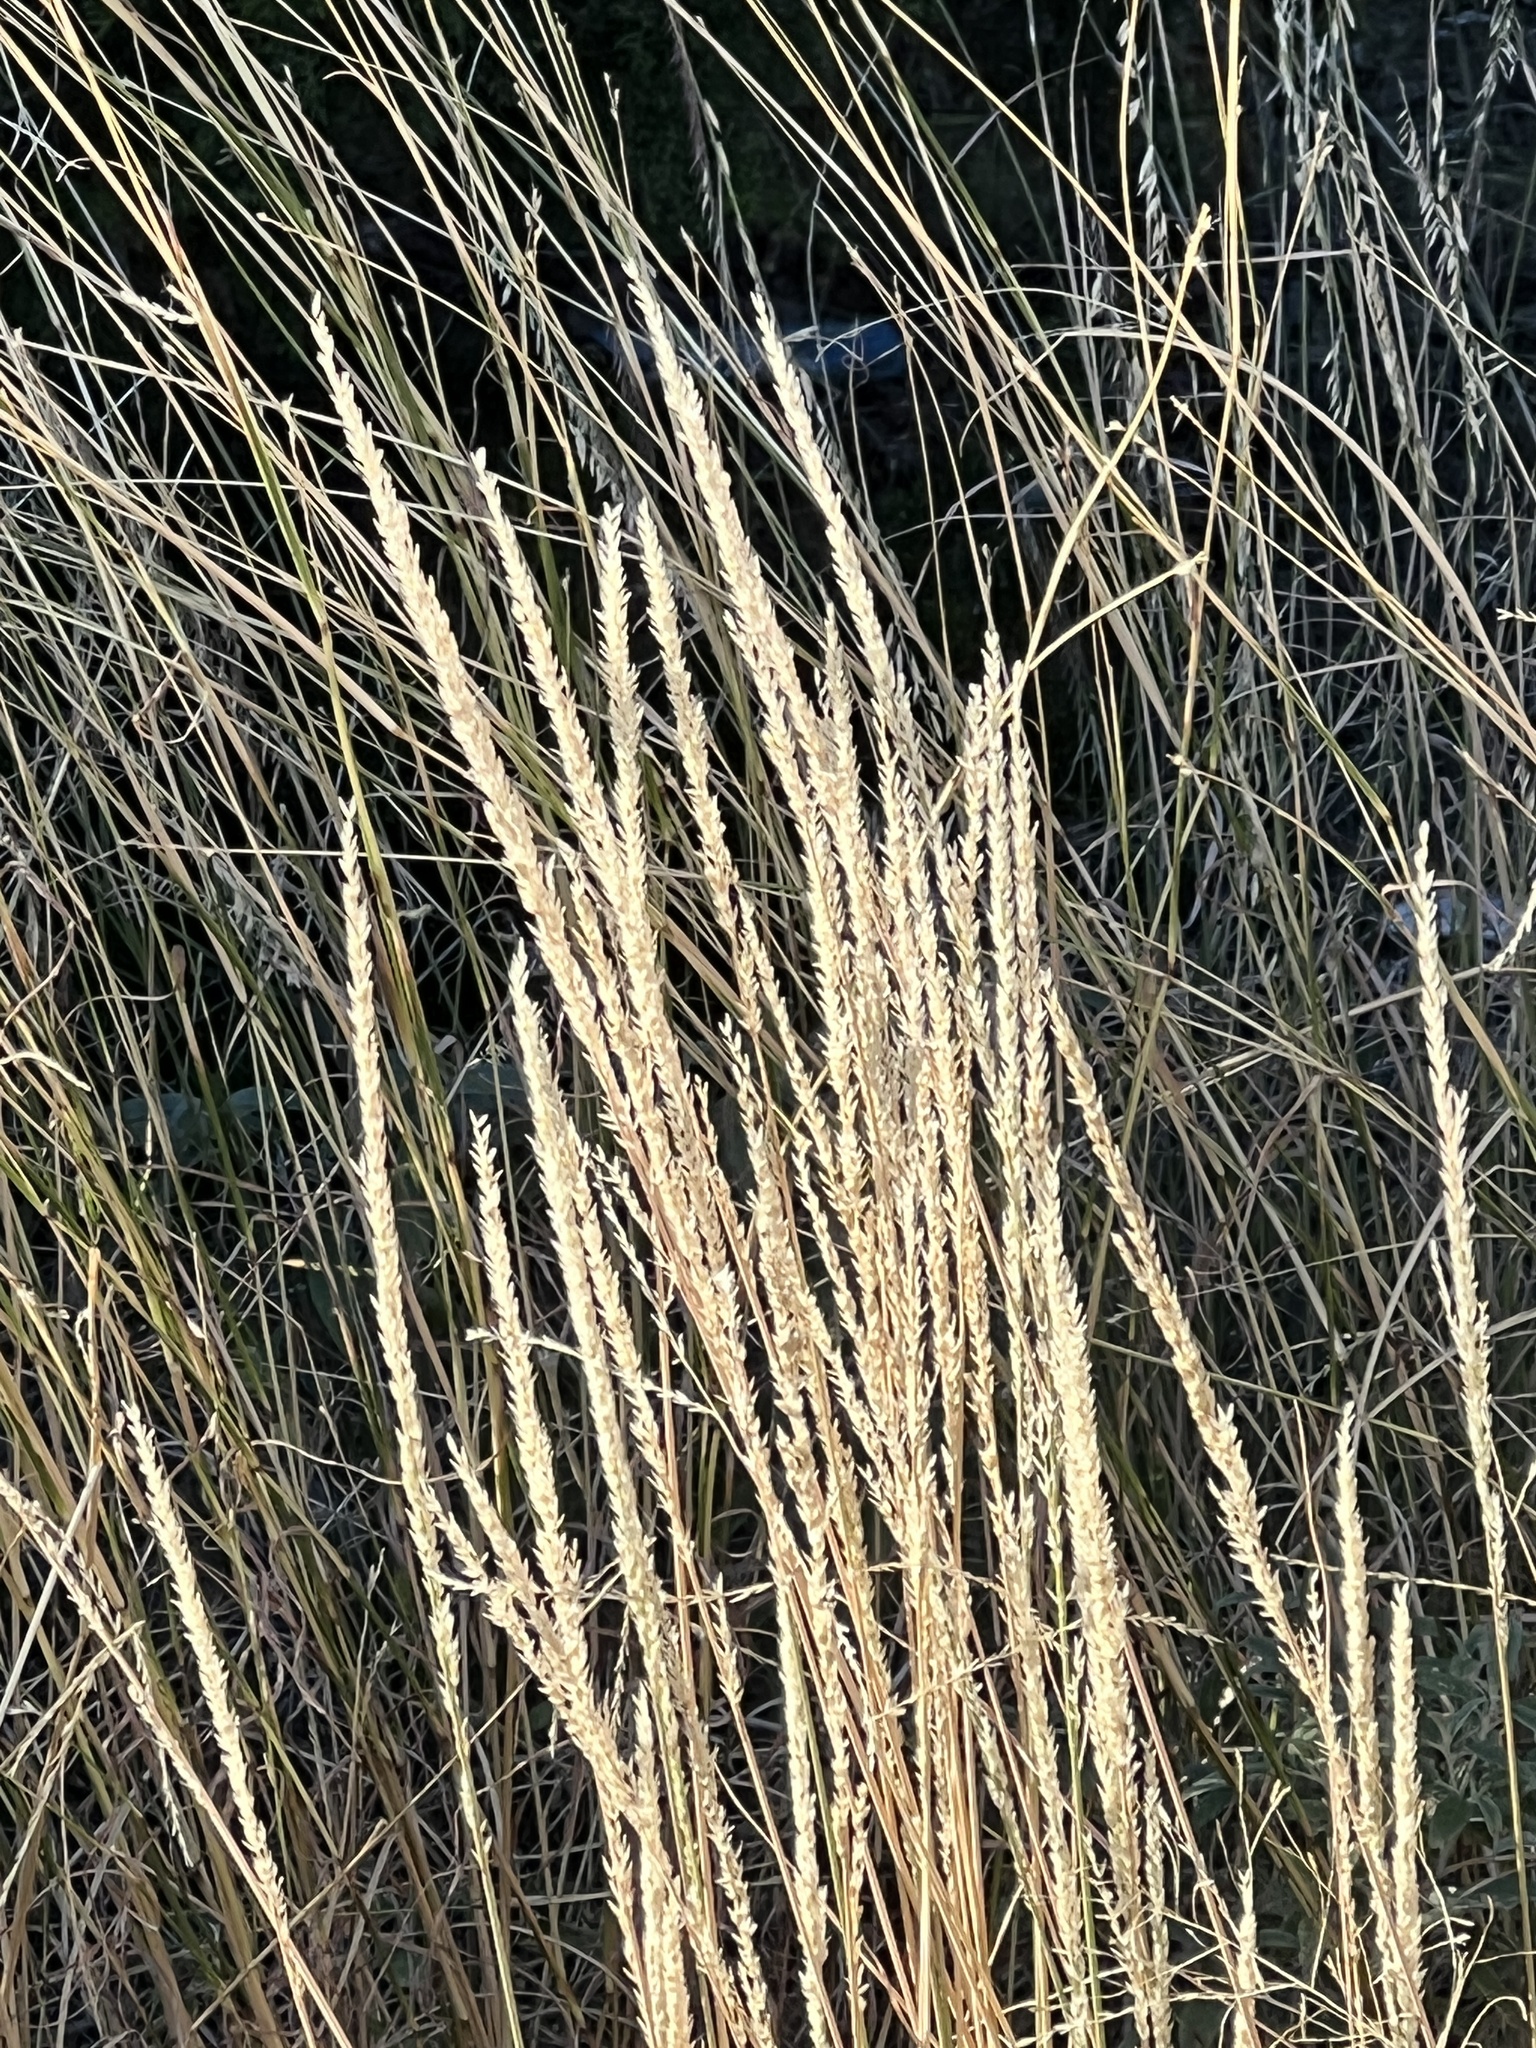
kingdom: Plantae
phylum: Tracheophyta
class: Liliopsida
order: Poales
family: Poaceae
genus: Tridens
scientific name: Tridens albescens
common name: White tridens
